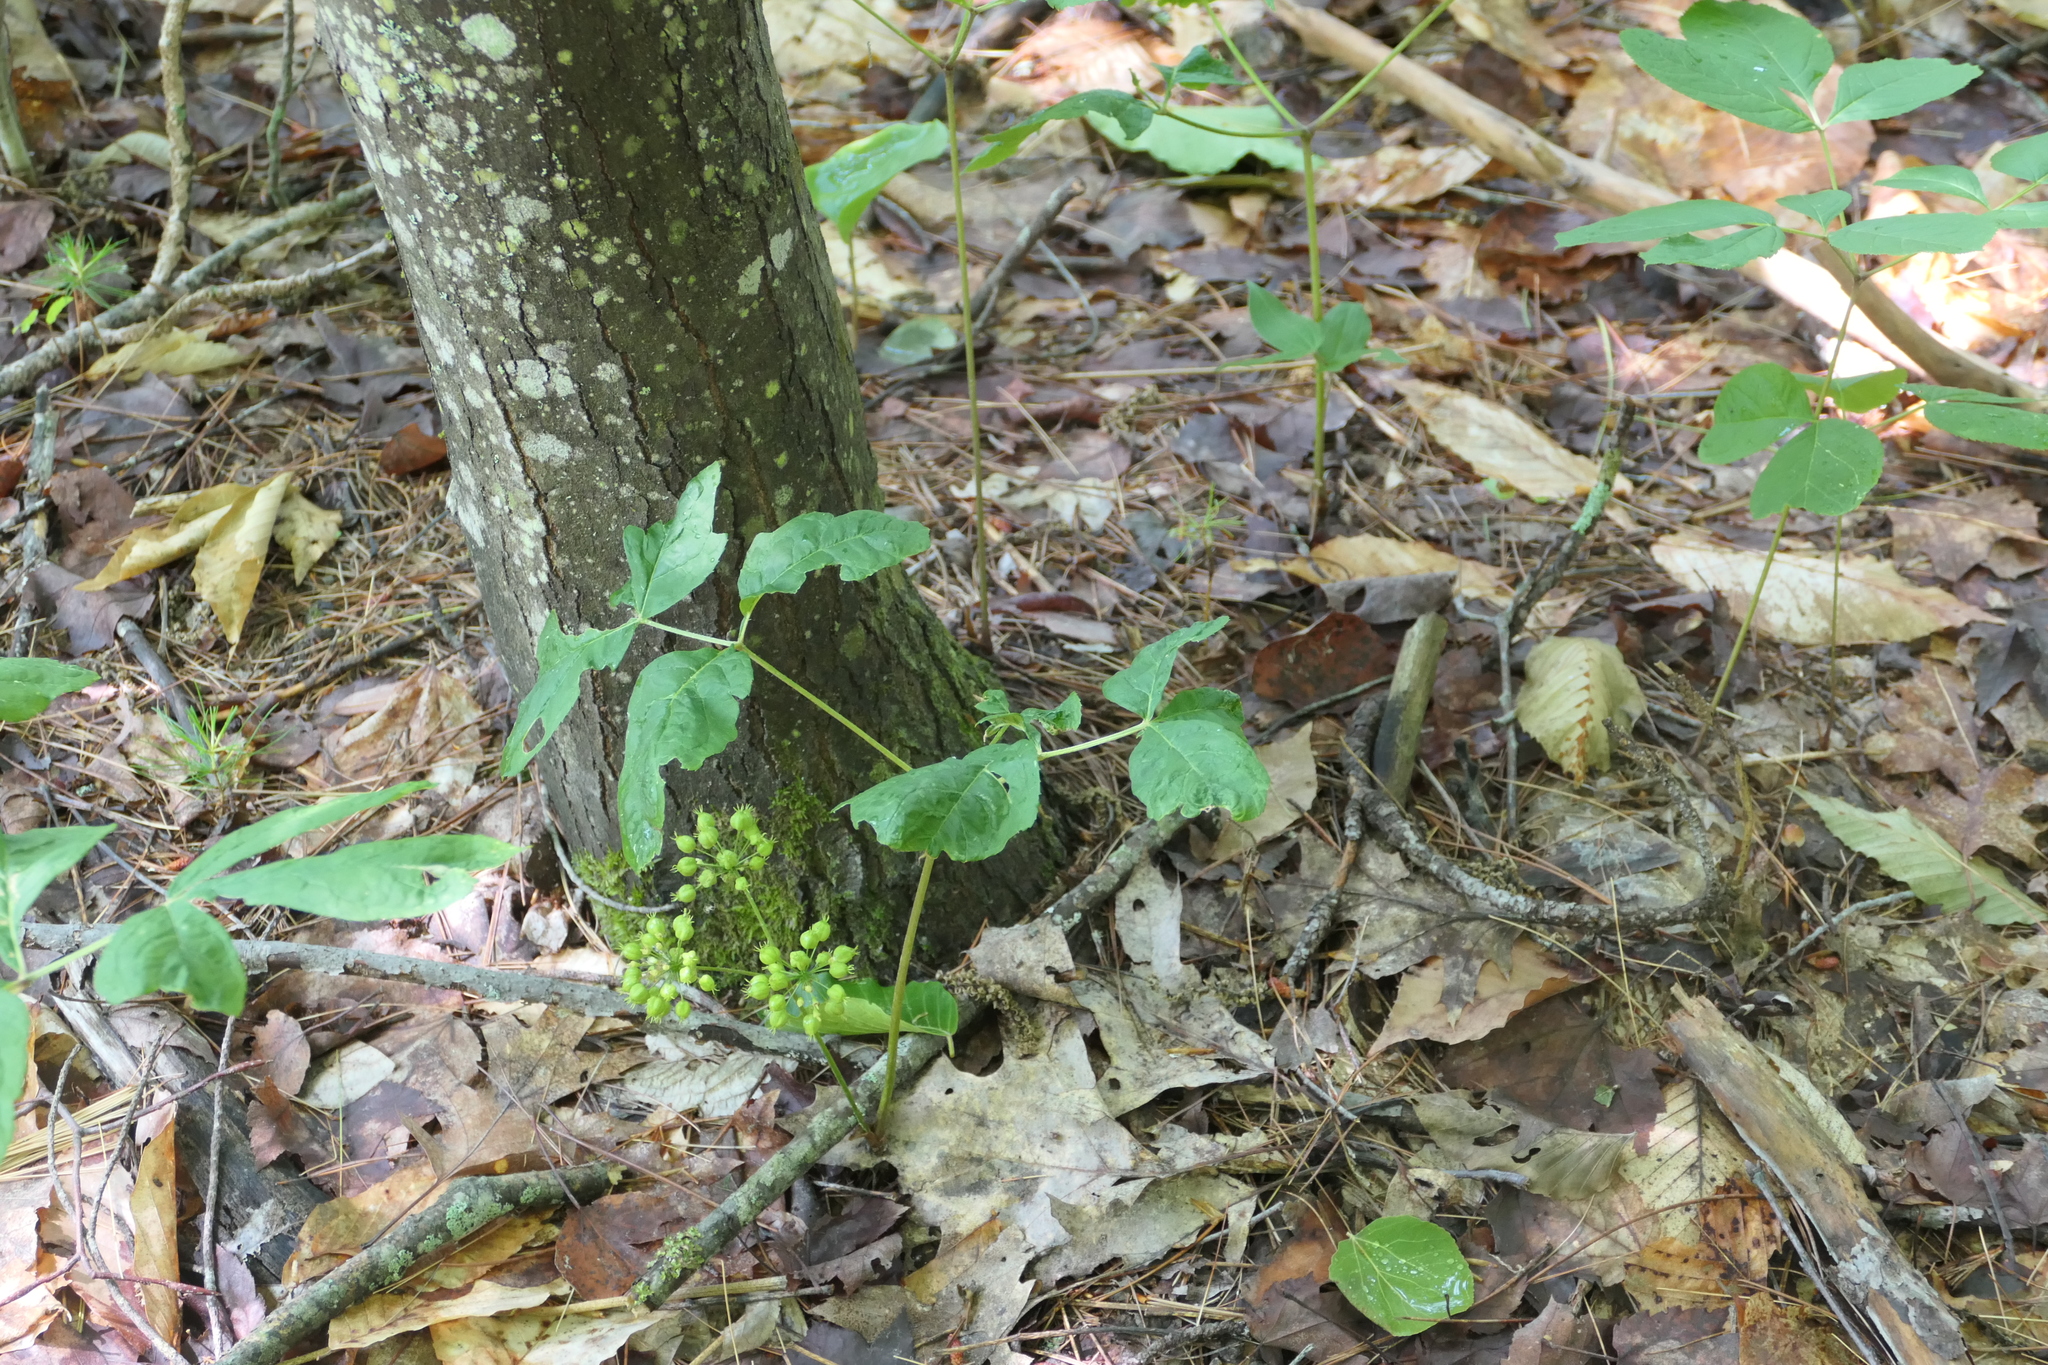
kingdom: Plantae
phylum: Tracheophyta
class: Magnoliopsida
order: Apiales
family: Araliaceae
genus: Aralia
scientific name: Aralia nudicaulis
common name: Wild sarsaparilla
